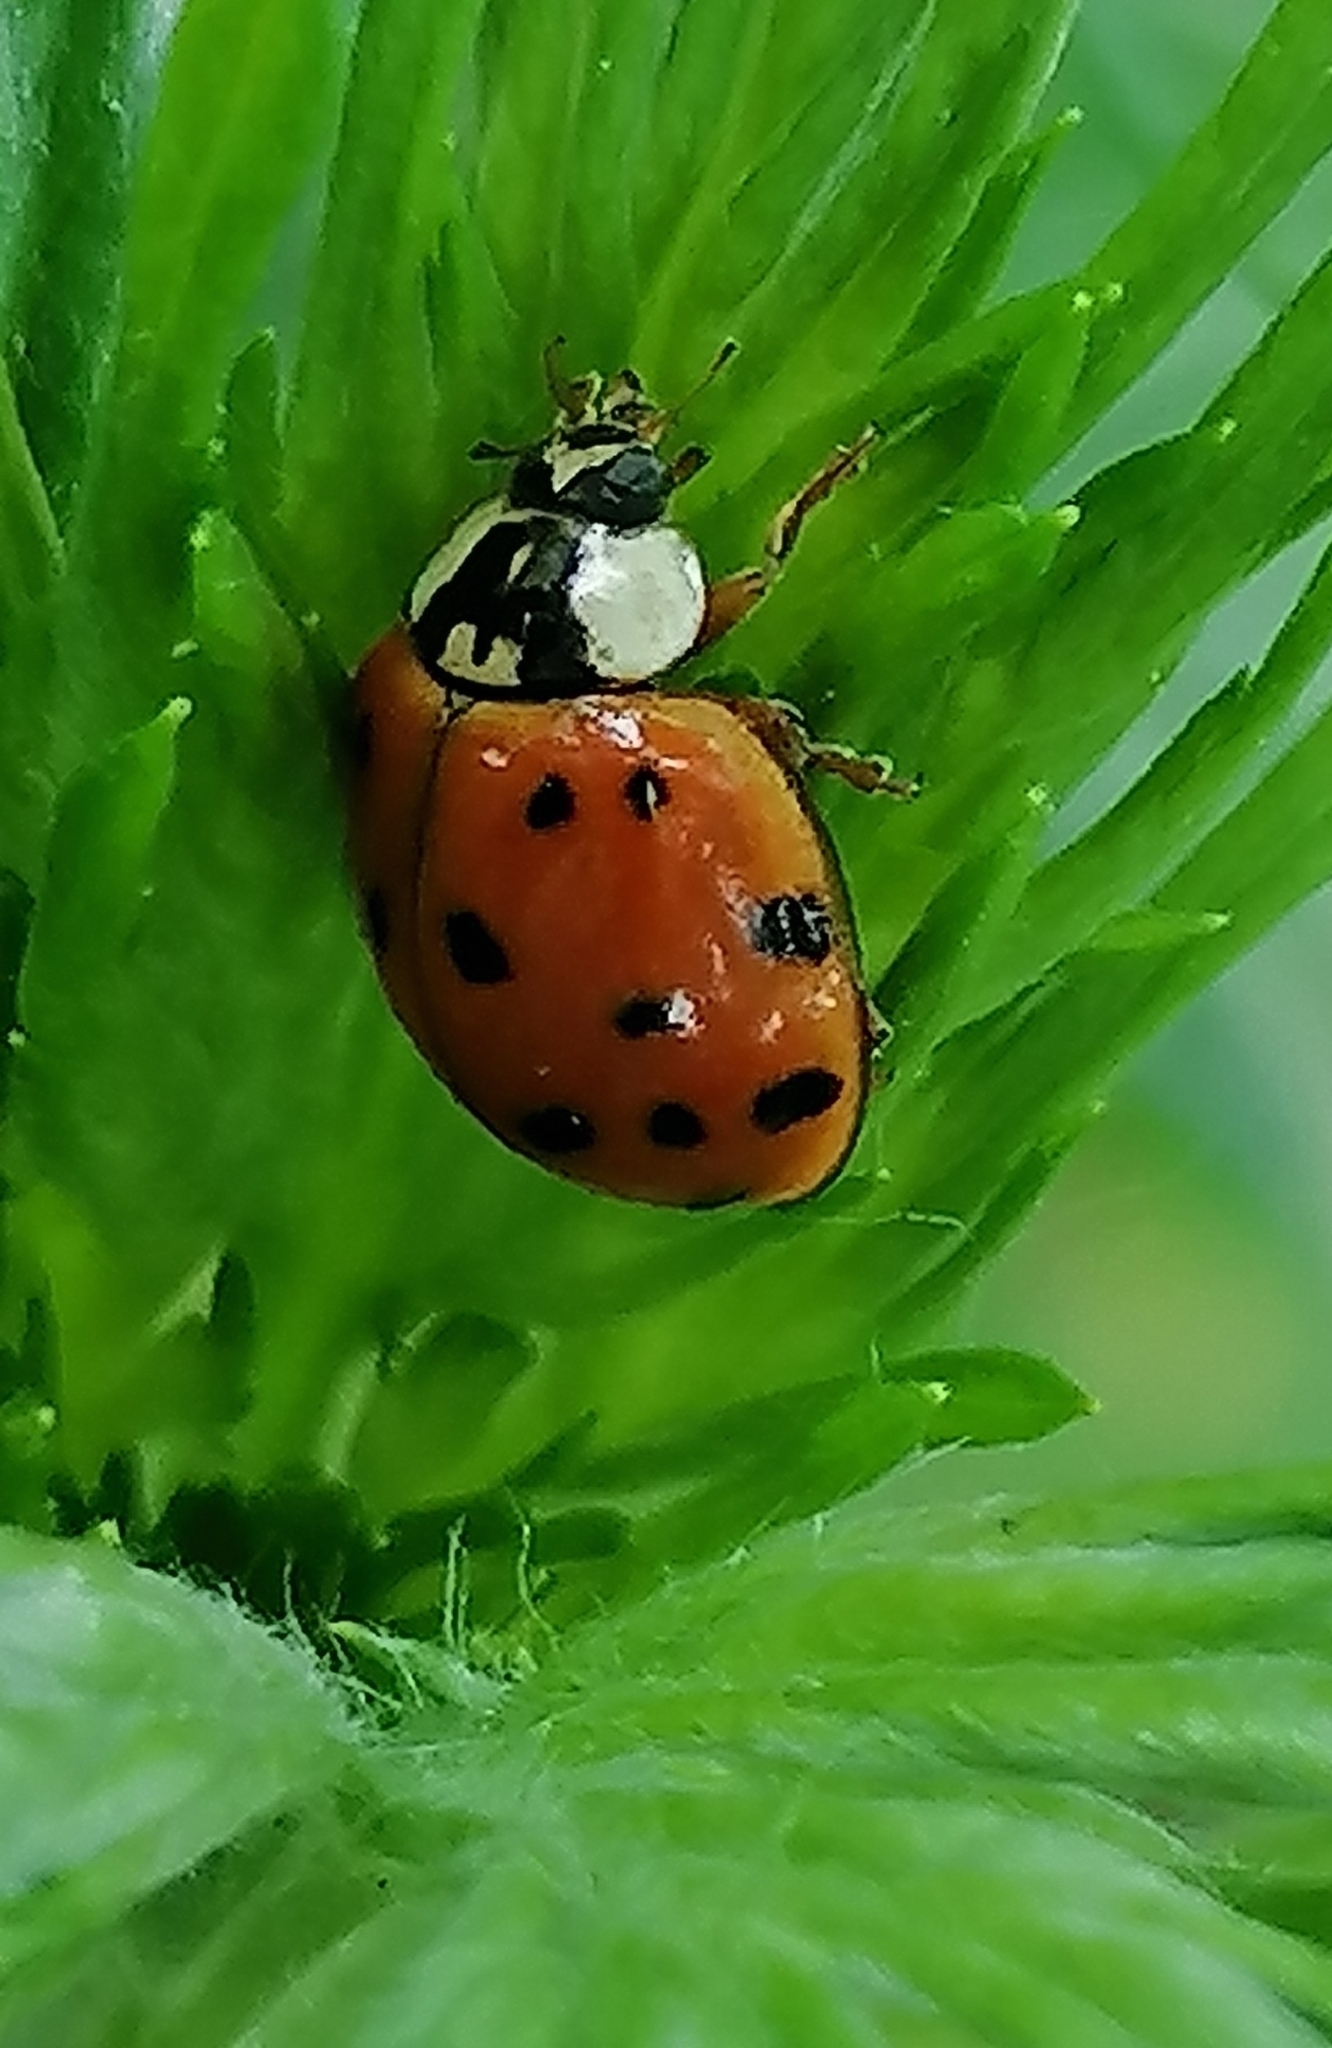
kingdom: Animalia
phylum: Arthropoda
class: Insecta
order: Coleoptera
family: Coccinellidae
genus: Harmonia
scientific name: Harmonia axyridis
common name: Harlequin ladybird
